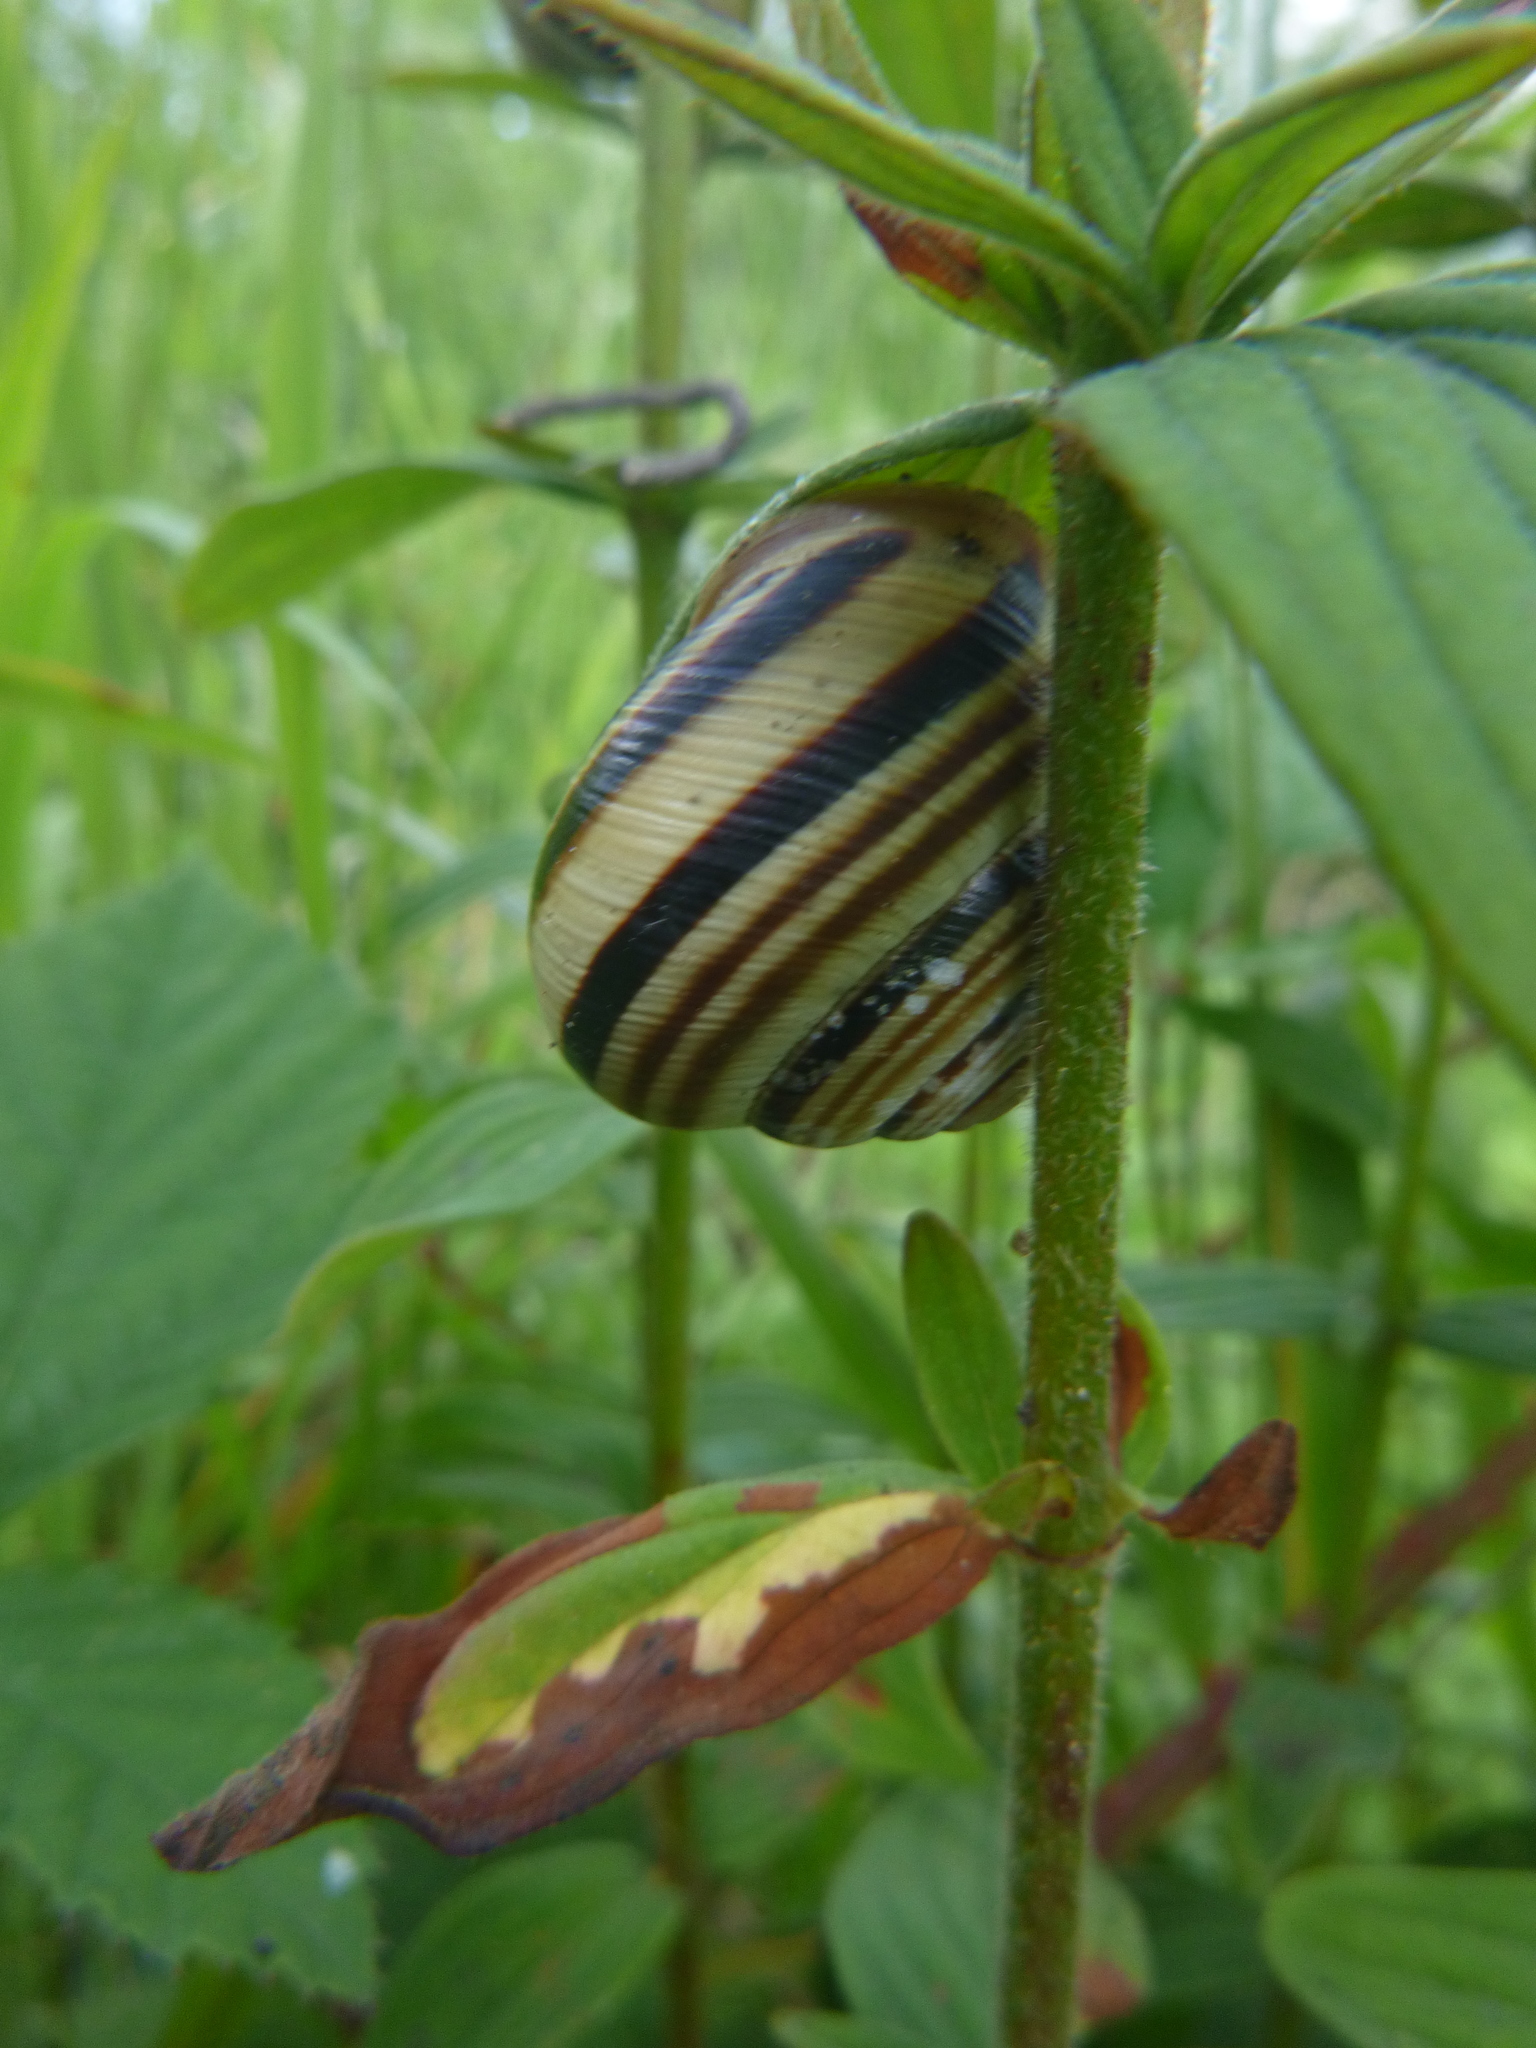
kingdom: Animalia
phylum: Mollusca
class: Gastropoda
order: Stylommatophora
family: Helicidae
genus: Caucasotachea
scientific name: Caucasotachea vindobonensis
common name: European helicid land snail
